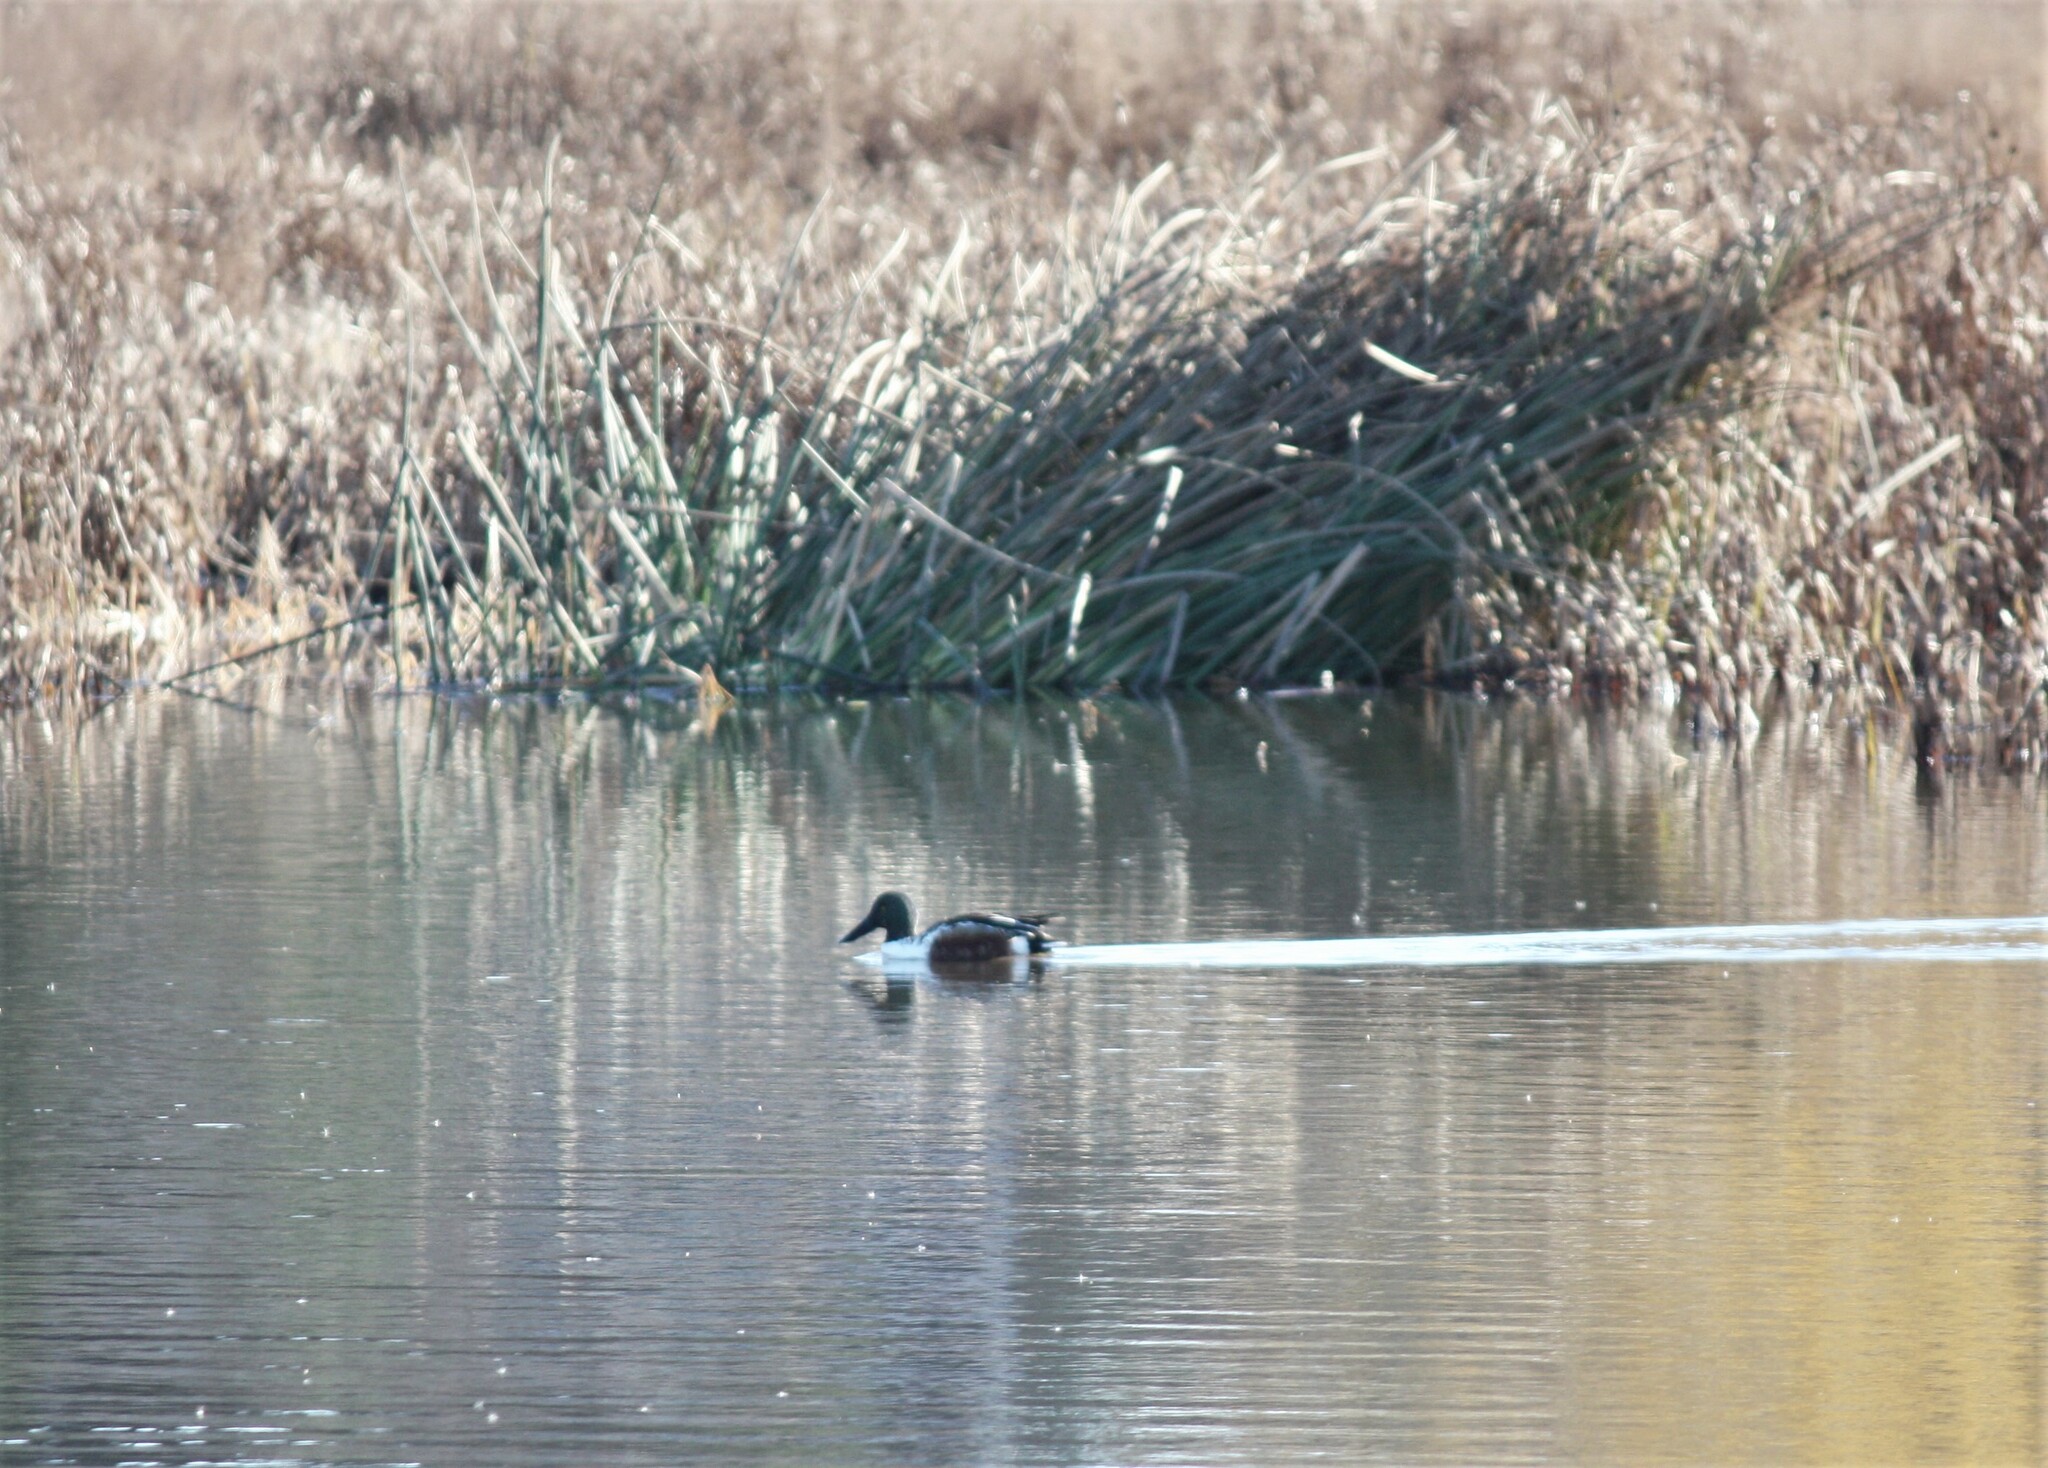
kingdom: Animalia
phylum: Chordata
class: Aves
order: Anseriformes
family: Anatidae
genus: Spatula
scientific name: Spatula clypeata
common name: Northern shoveler
